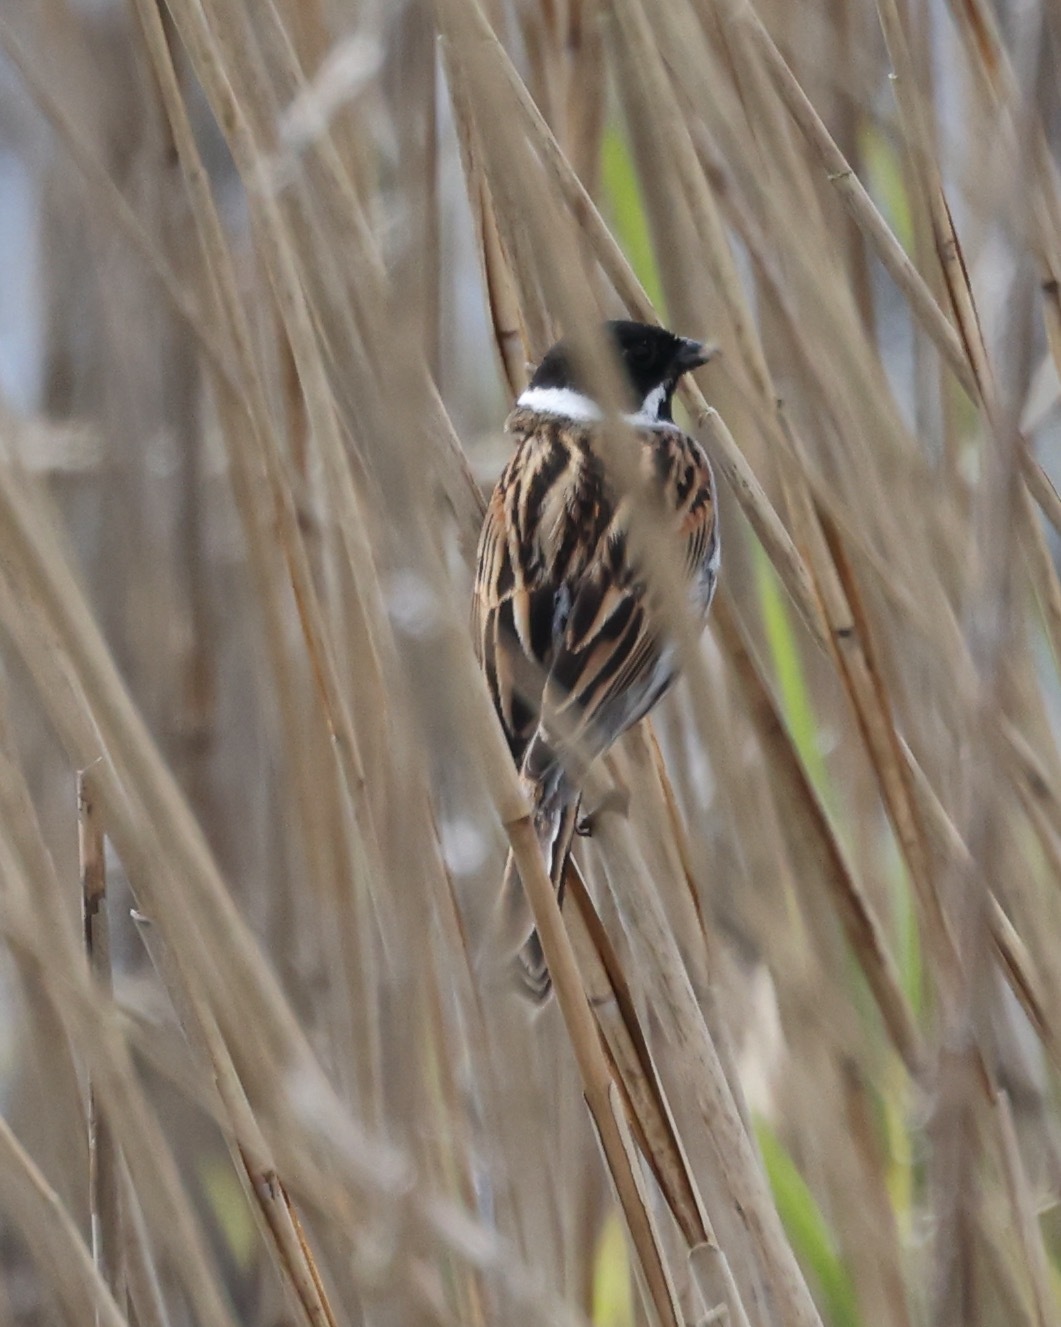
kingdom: Animalia
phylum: Chordata
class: Aves
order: Passeriformes
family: Emberizidae
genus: Emberiza
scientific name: Emberiza schoeniclus
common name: Reed bunting
